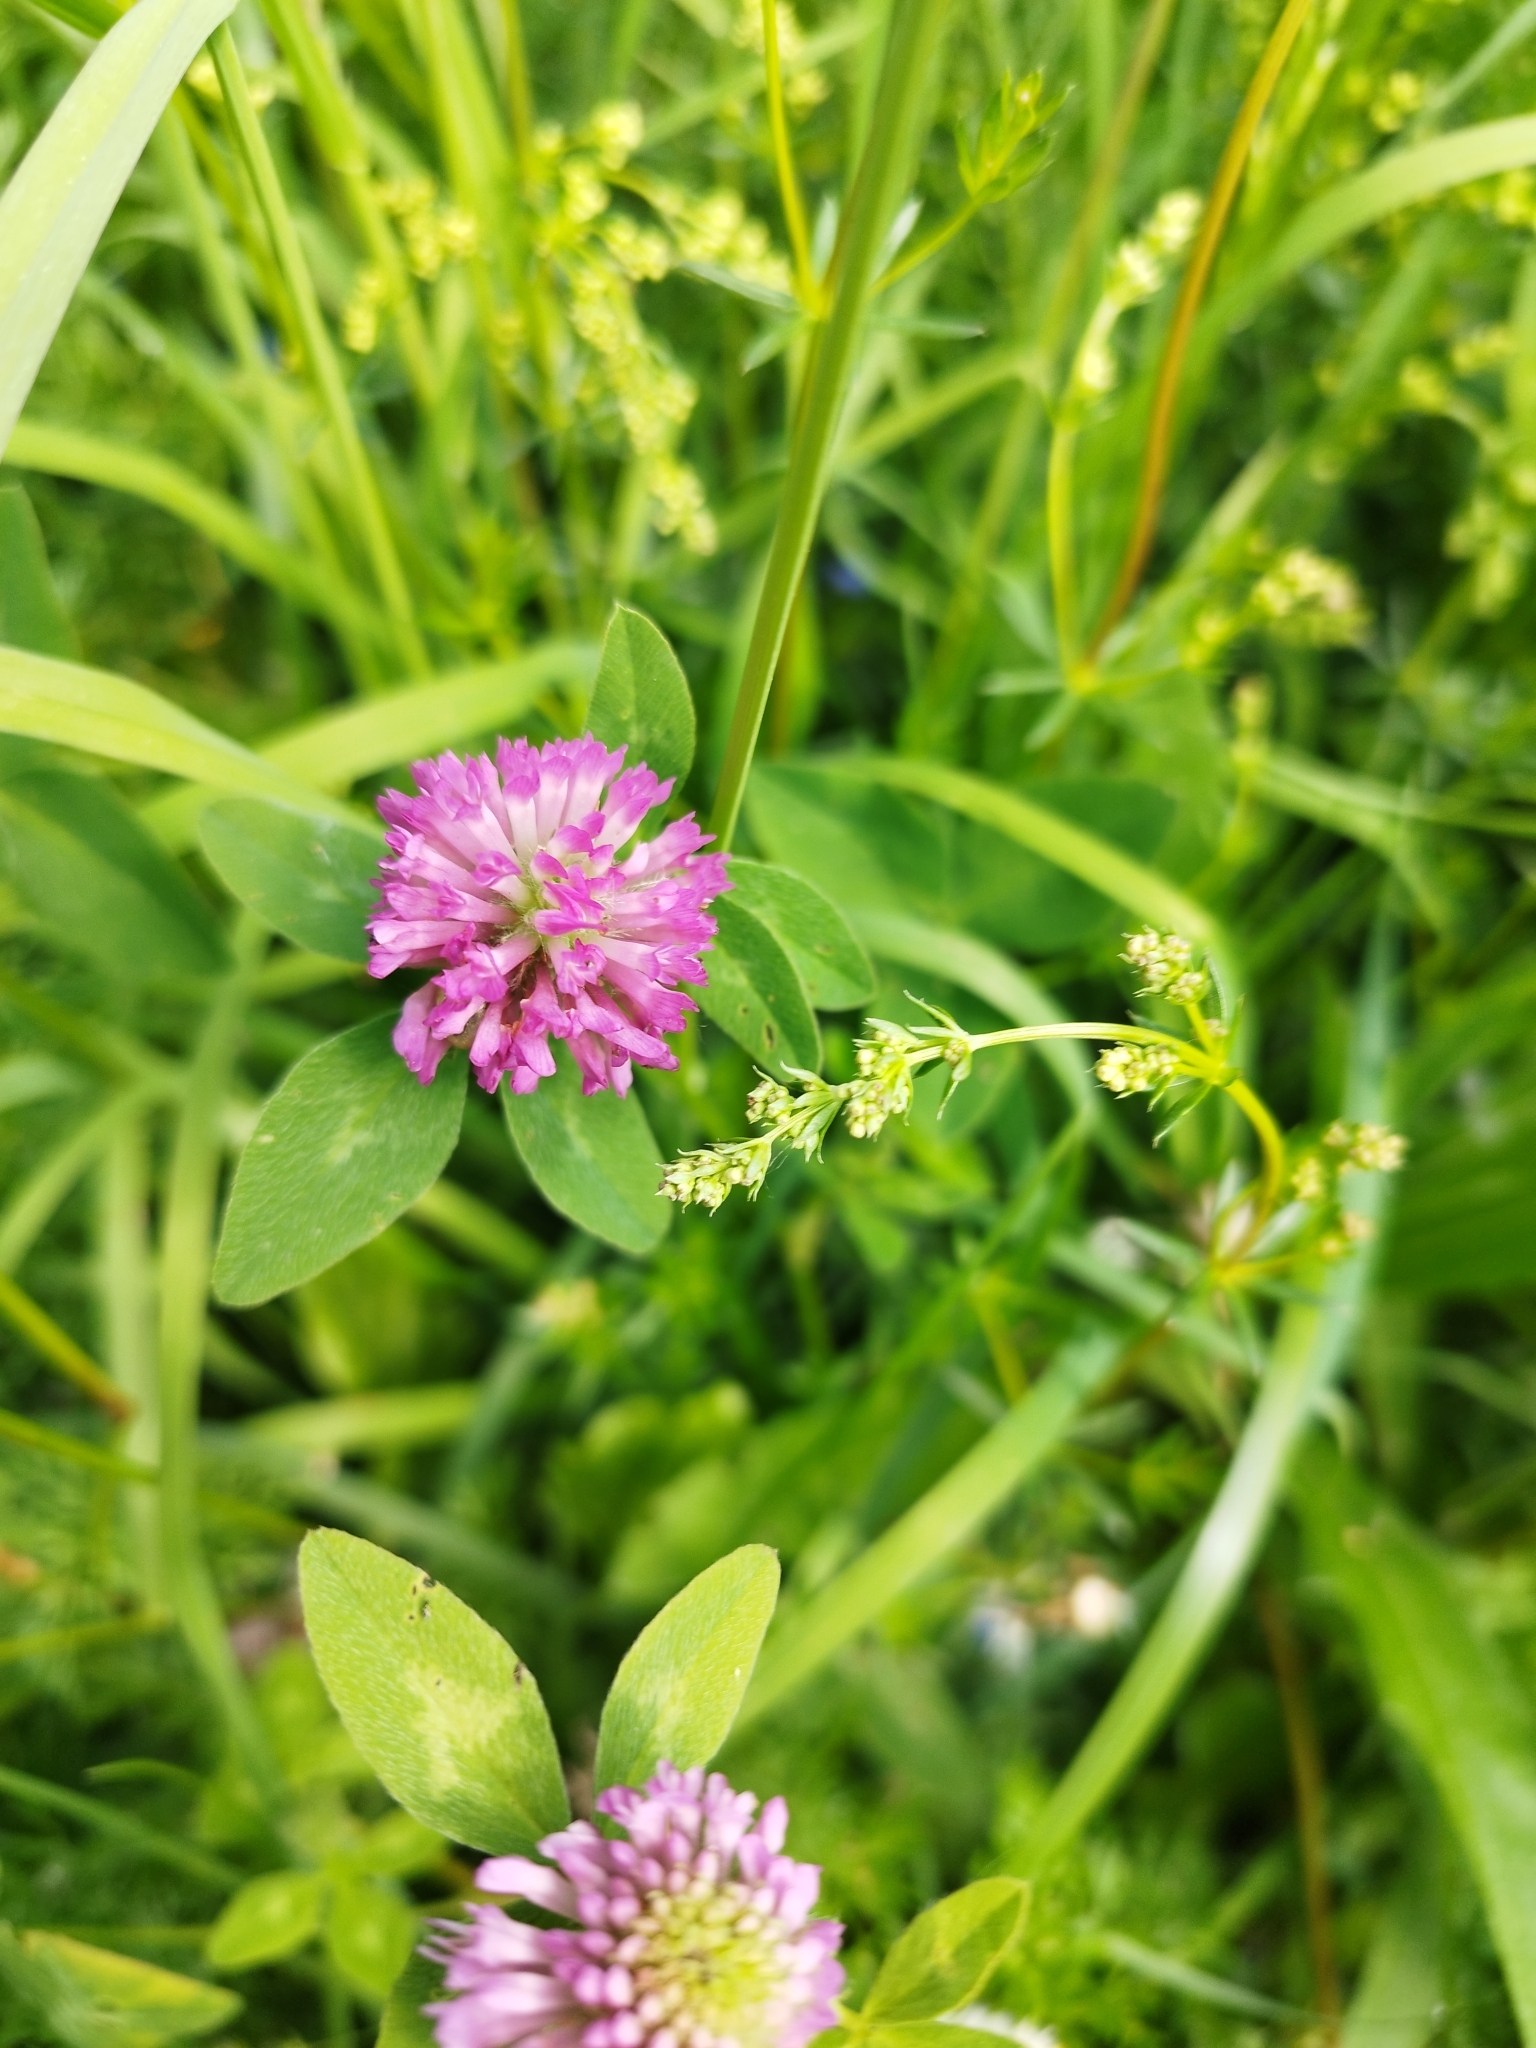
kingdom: Plantae
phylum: Tracheophyta
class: Magnoliopsida
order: Fabales
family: Fabaceae
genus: Trifolium
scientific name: Trifolium pratense
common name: Red clover
